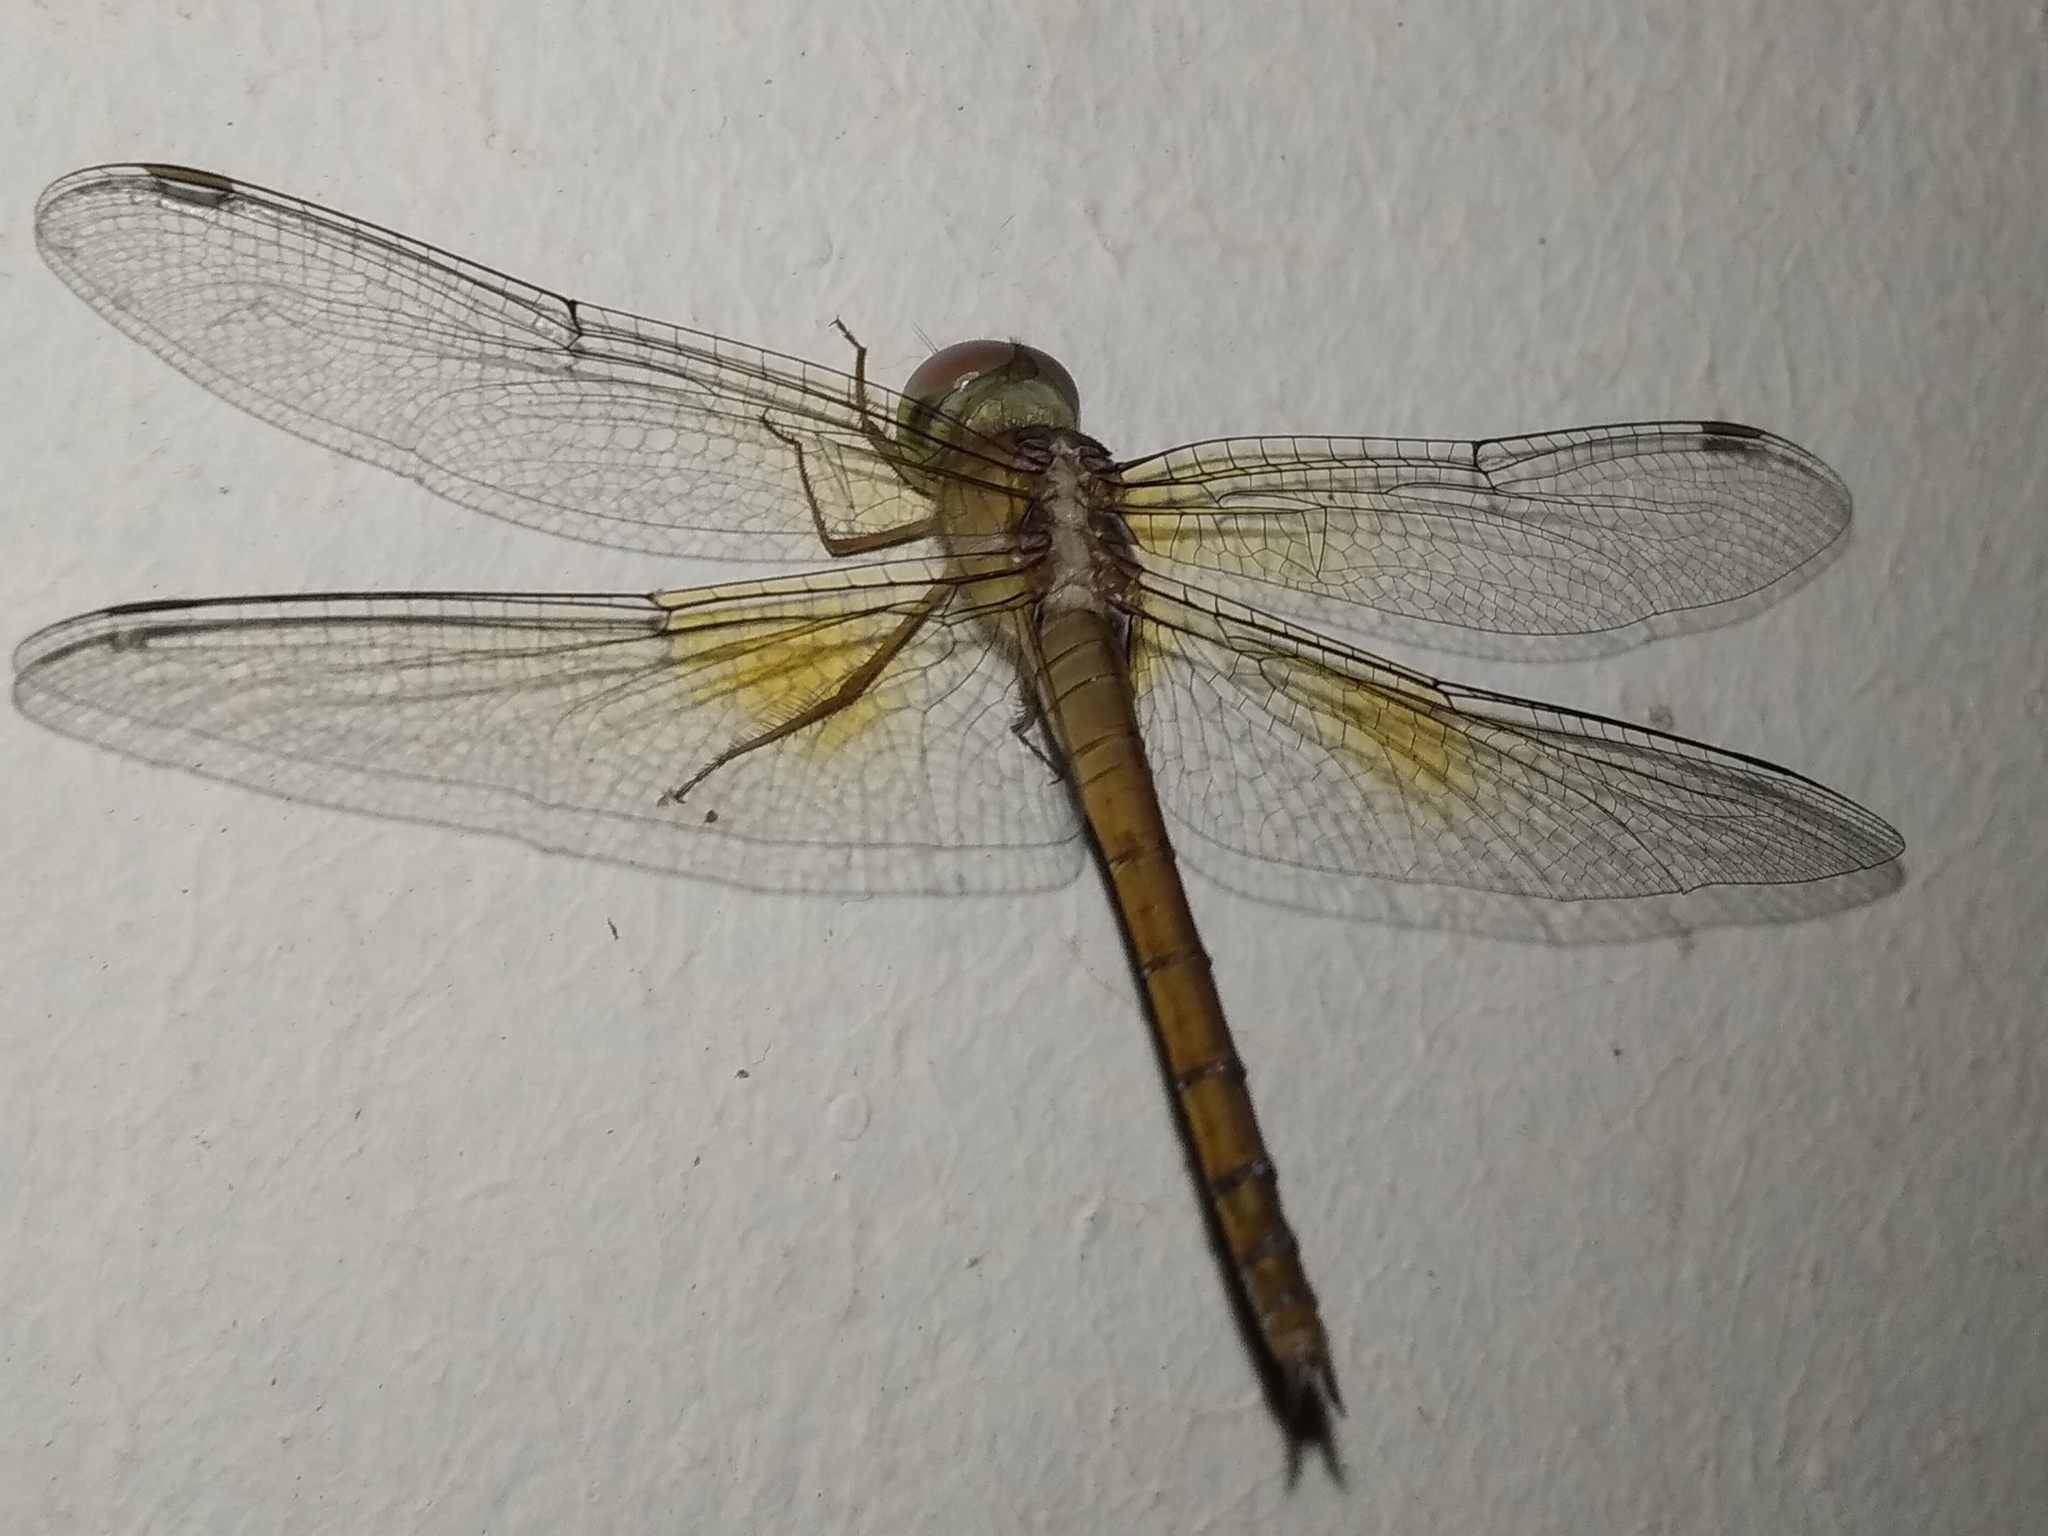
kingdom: Animalia
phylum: Arthropoda
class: Insecta
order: Odonata
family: Libellulidae
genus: Tholymis
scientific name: Tholymis tillarga
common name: Coral-tailed cloud wing
